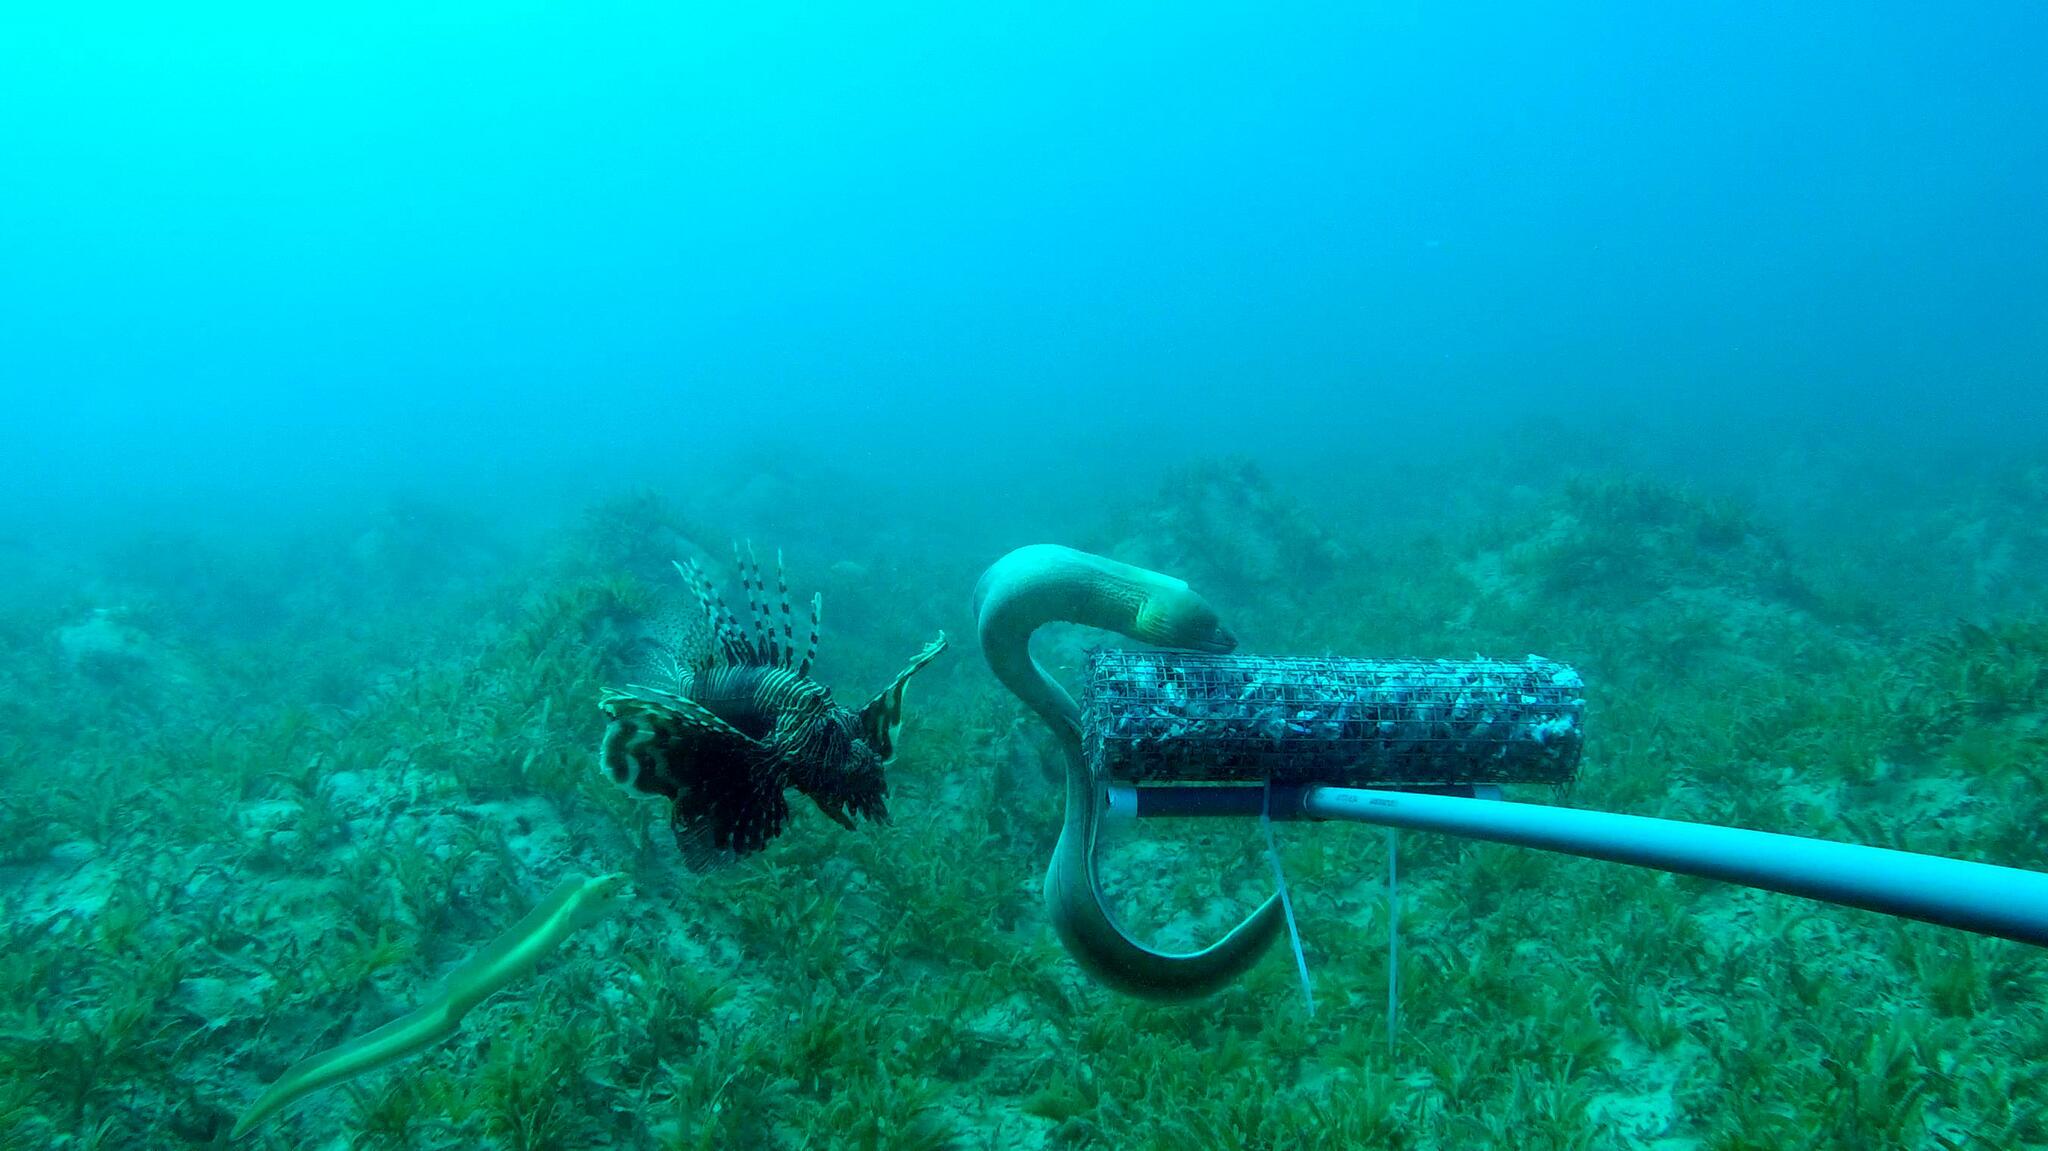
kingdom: Animalia
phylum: Chordata
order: Scorpaeniformes
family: Scorpaenidae
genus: Pterois
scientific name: Pterois miles
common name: Devil firefish
